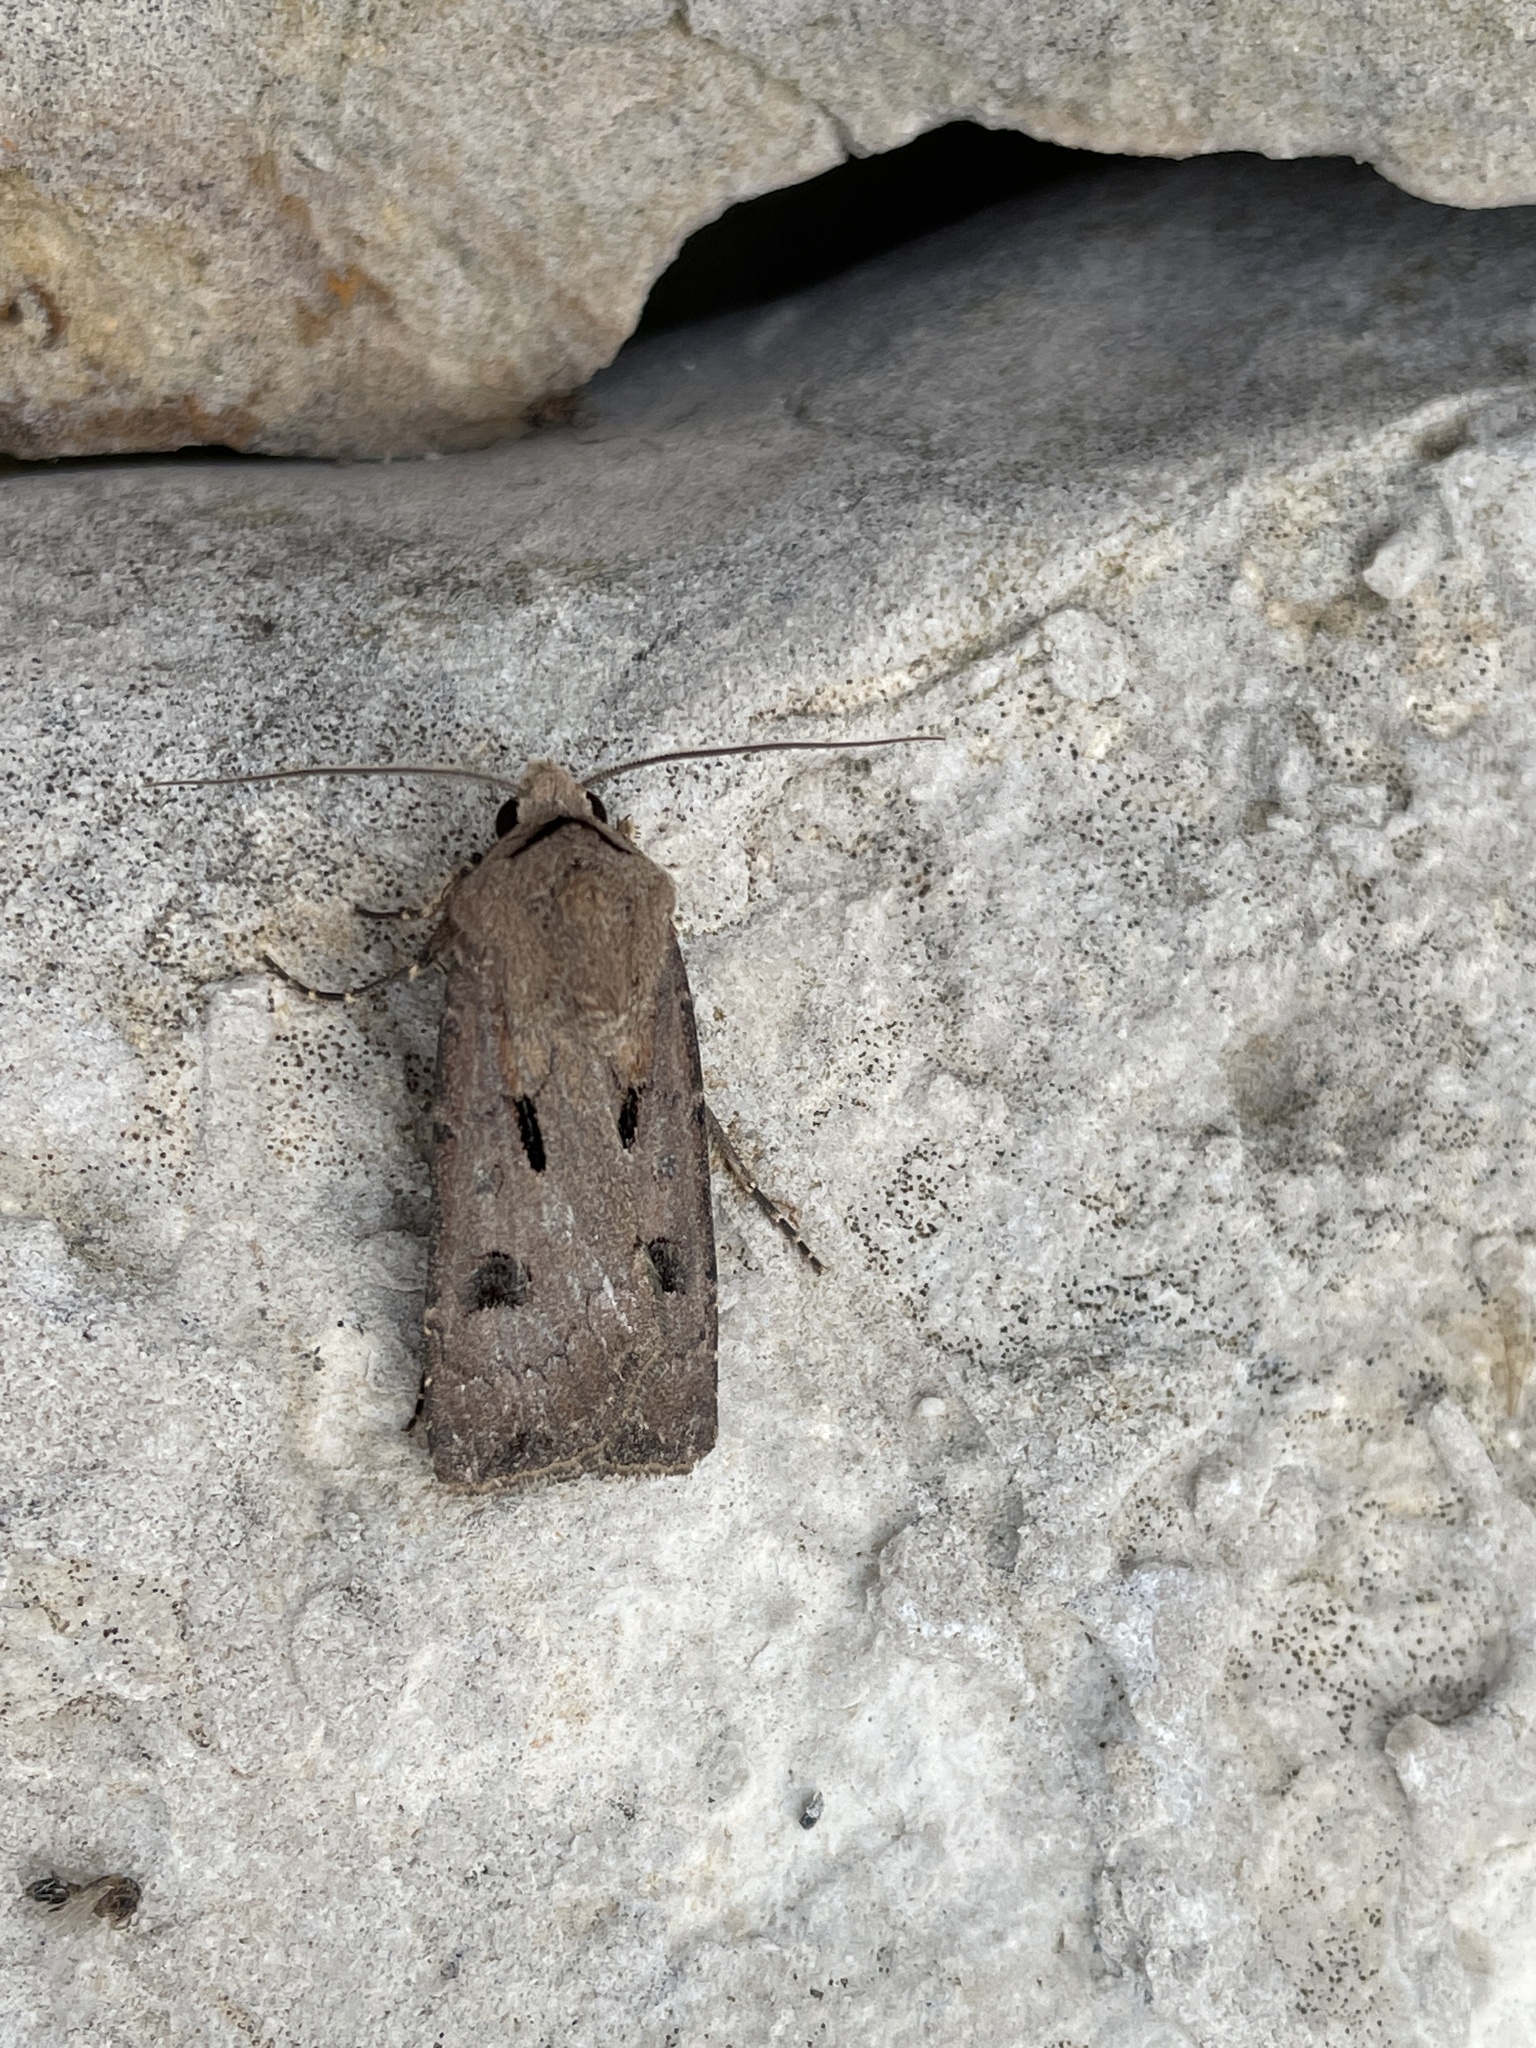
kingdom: Animalia
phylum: Arthropoda
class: Insecta
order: Lepidoptera
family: Noctuidae
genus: Agrotis
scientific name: Agrotis exclamationis
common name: Heart and dart
